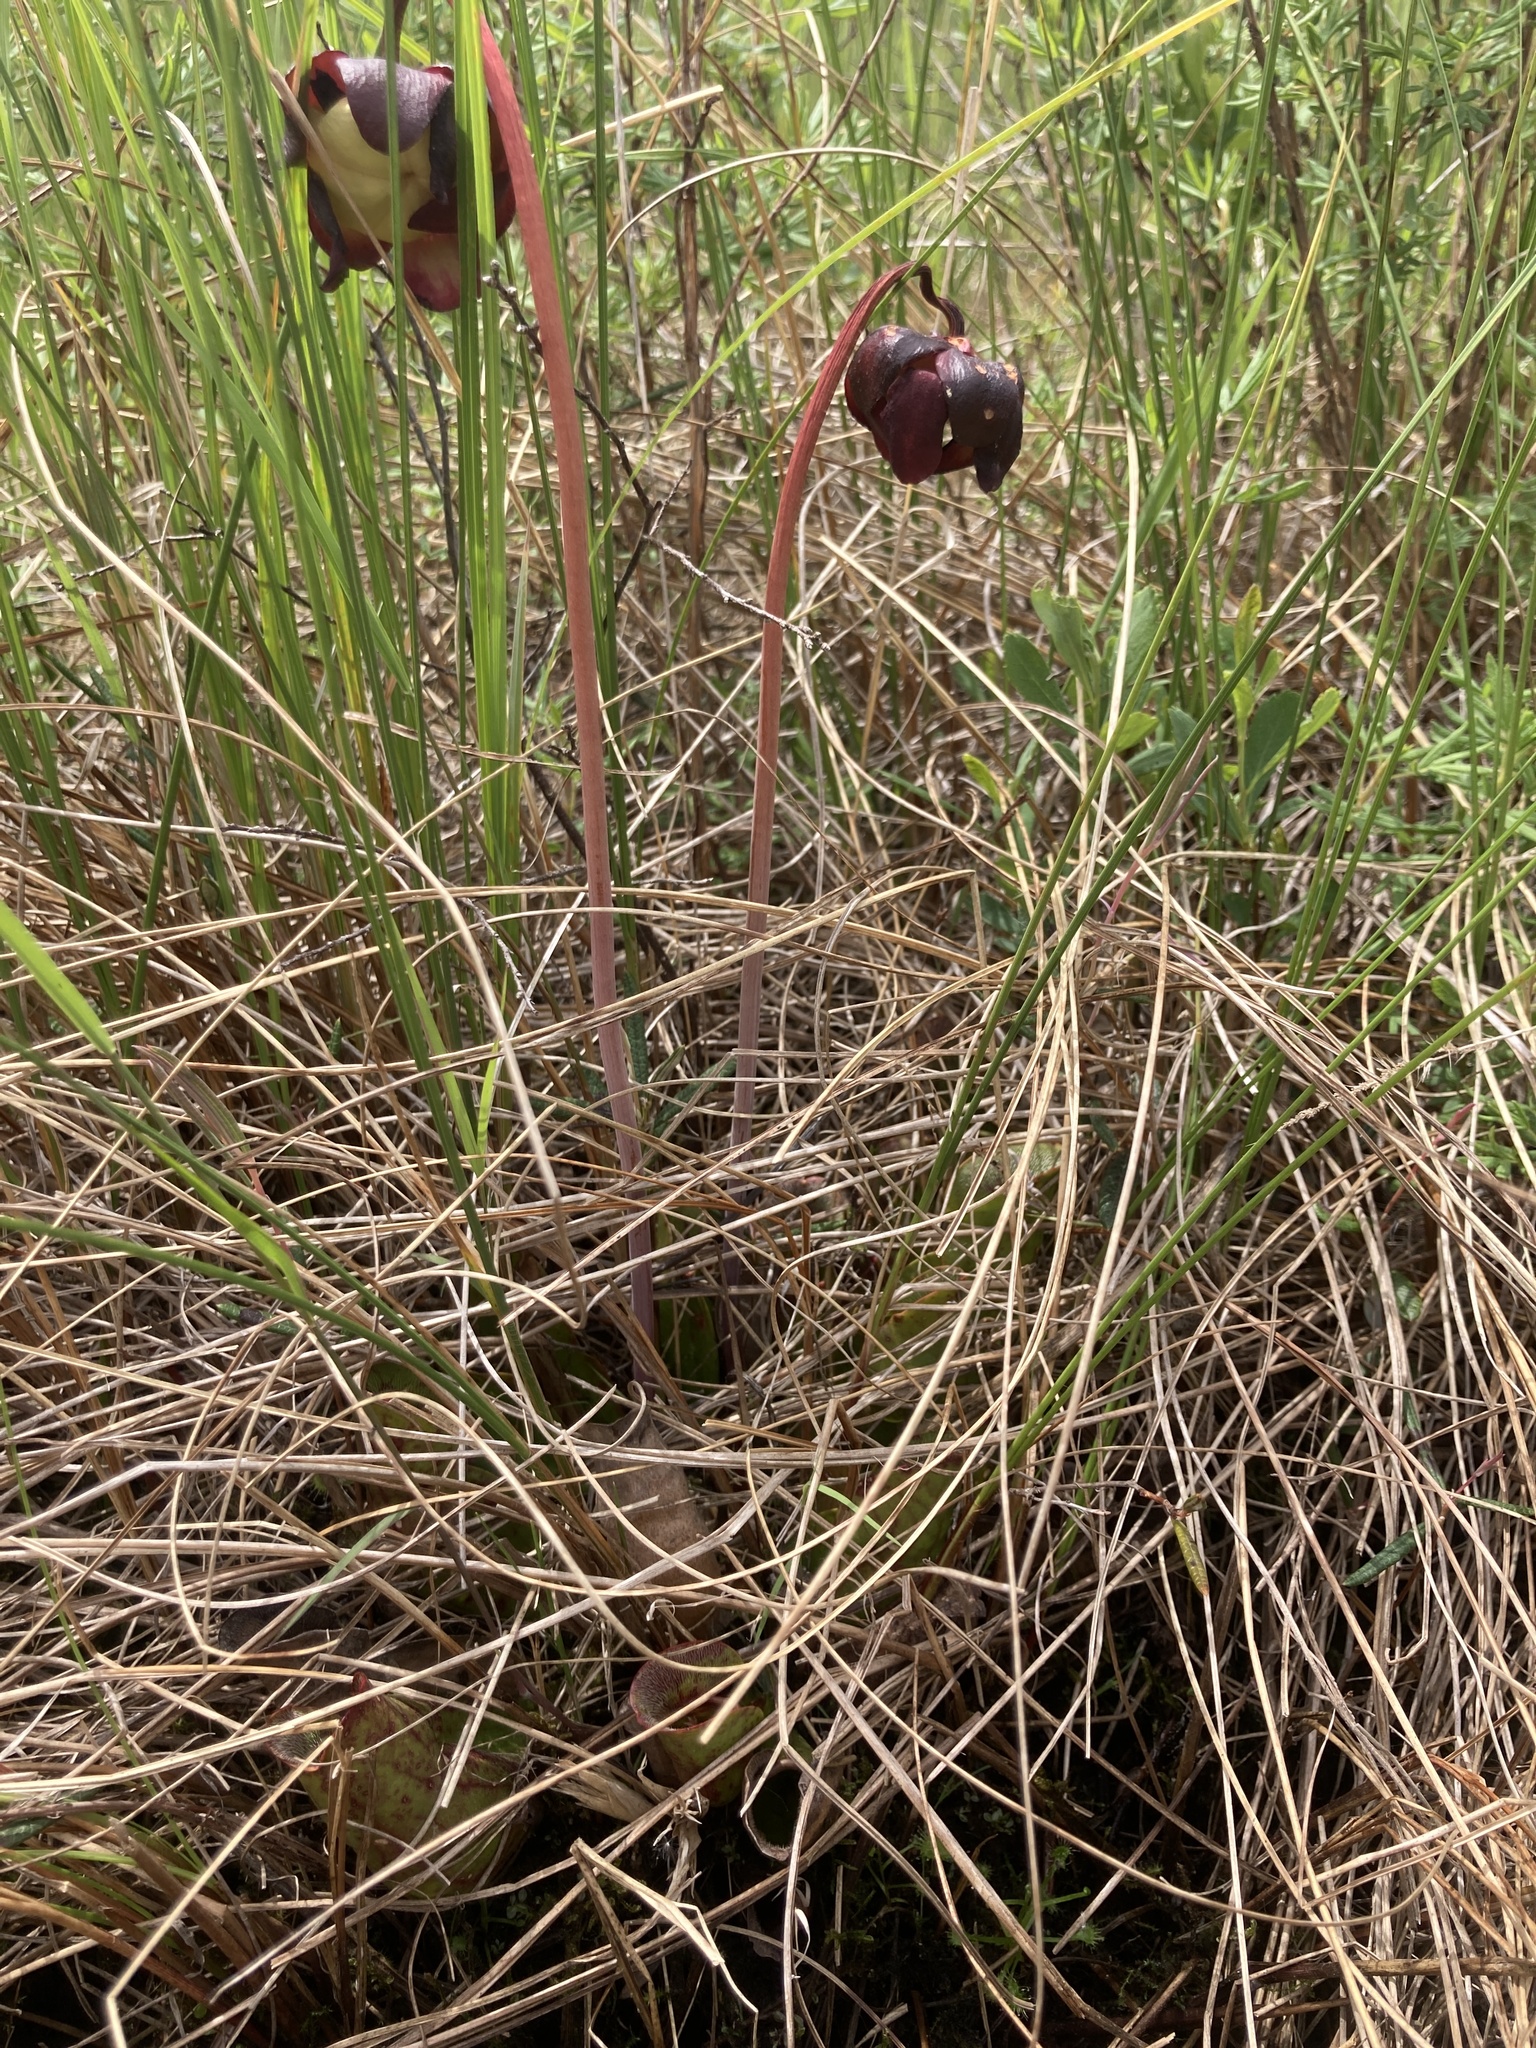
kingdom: Plantae
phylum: Tracheophyta
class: Magnoliopsida
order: Ericales
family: Sarraceniaceae
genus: Sarracenia
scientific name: Sarracenia purpurea
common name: Pitcherplant
